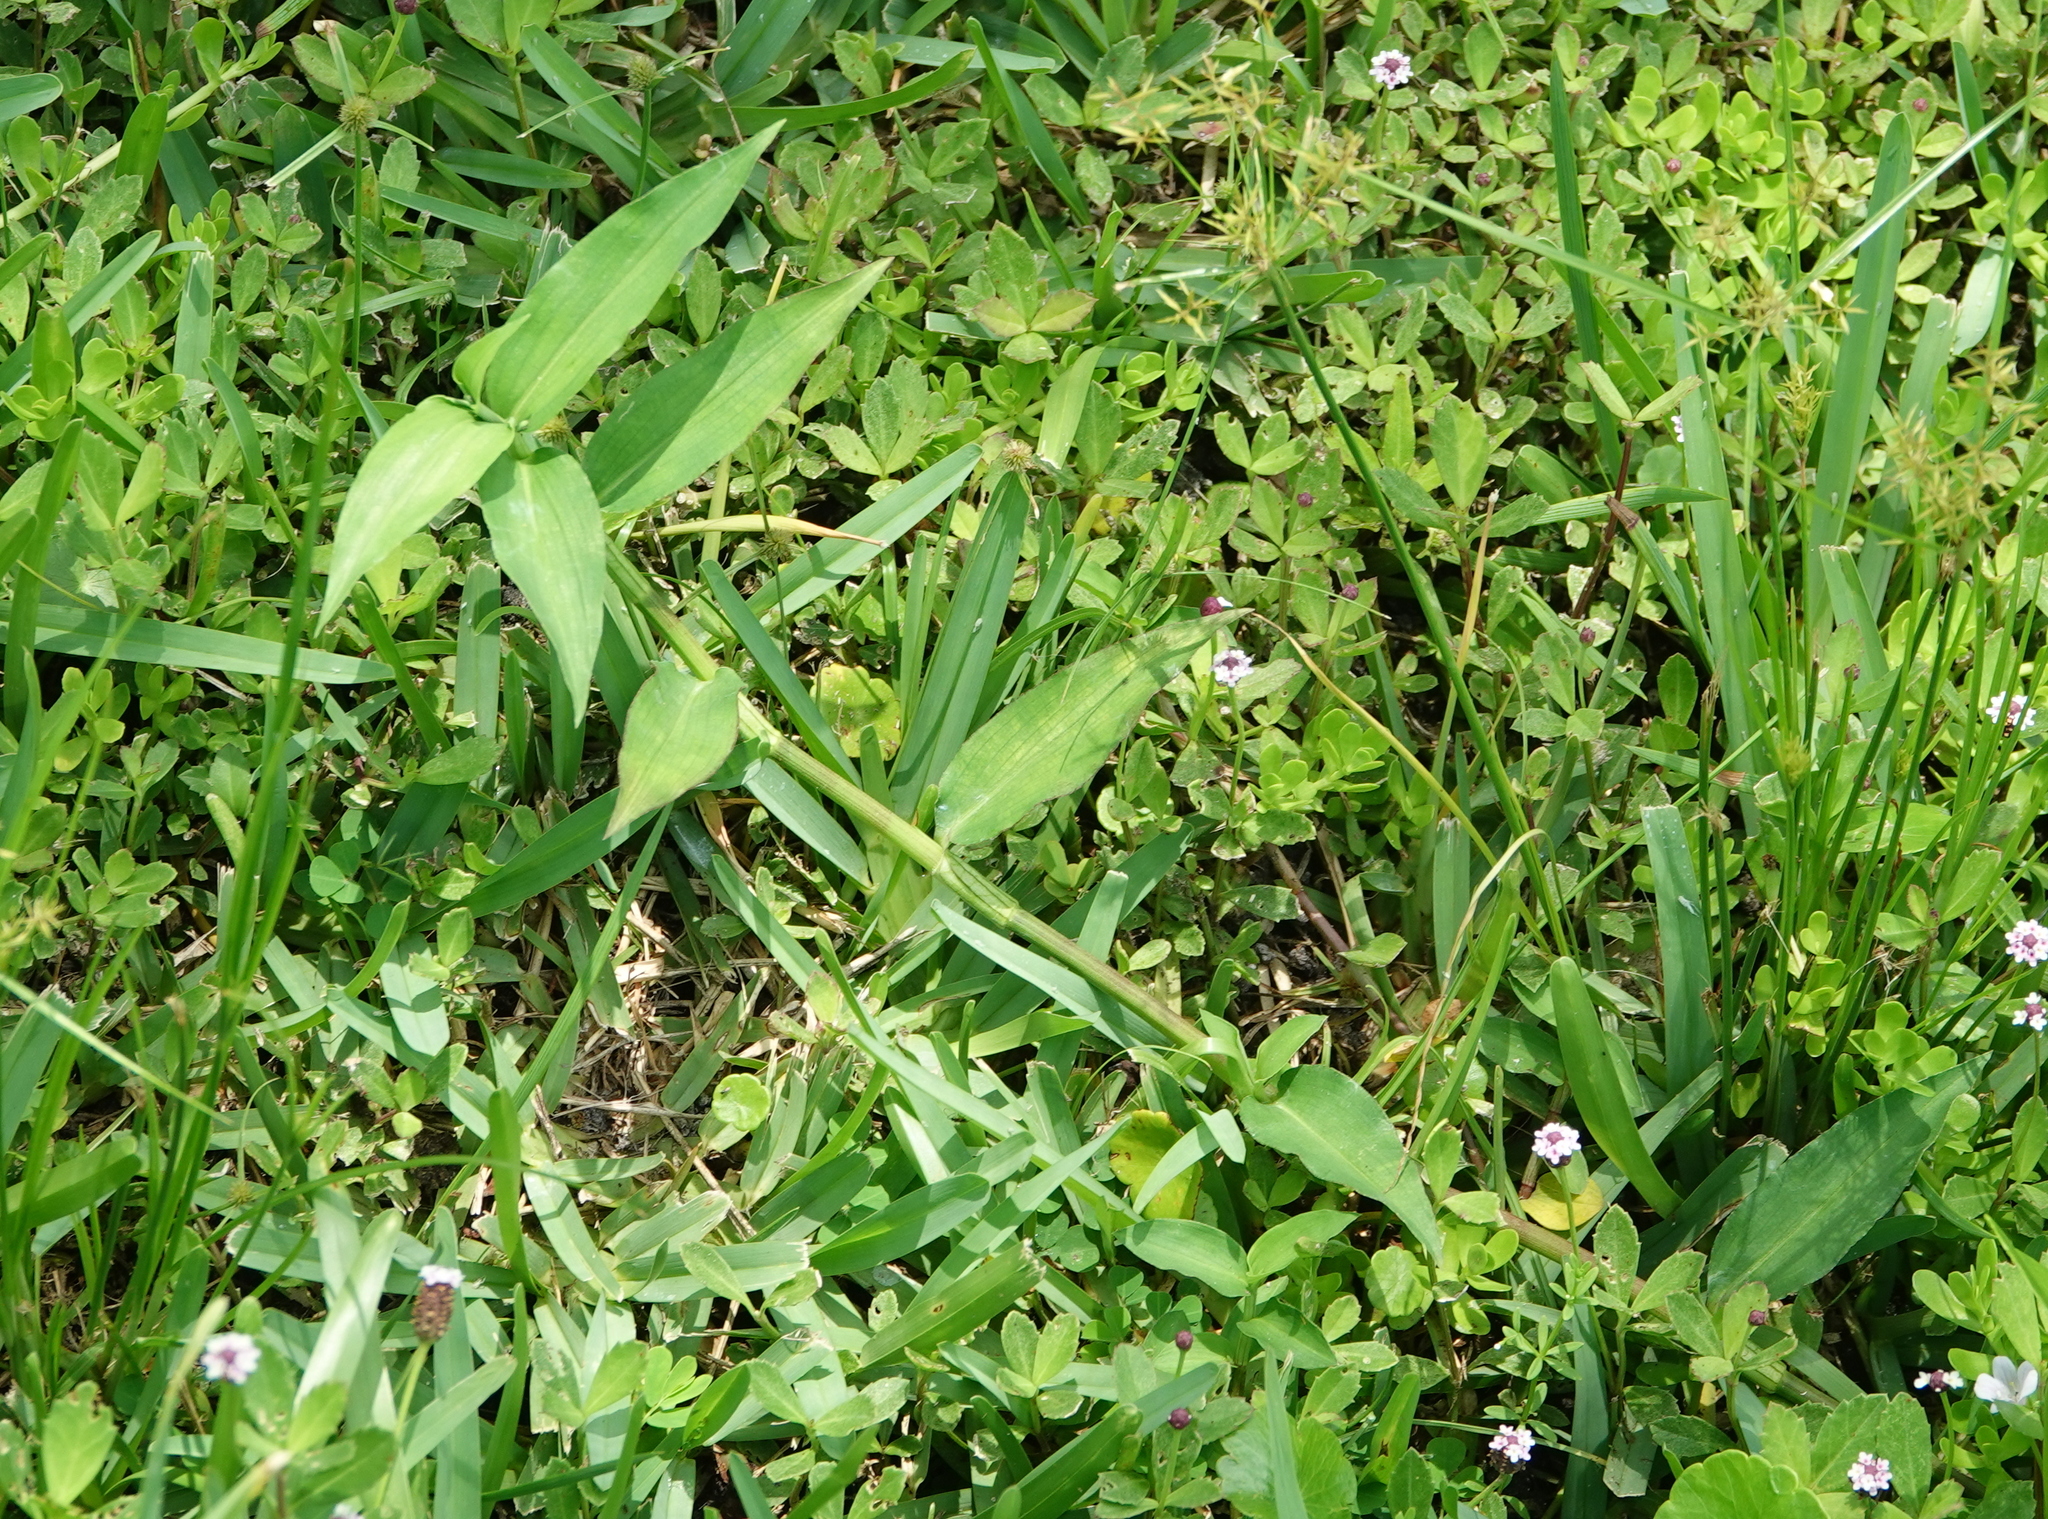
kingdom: Plantae
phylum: Tracheophyta
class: Liliopsida
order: Commelinales
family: Commelinaceae
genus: Commelina
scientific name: Commelina diffusa
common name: Climbing dayflower
